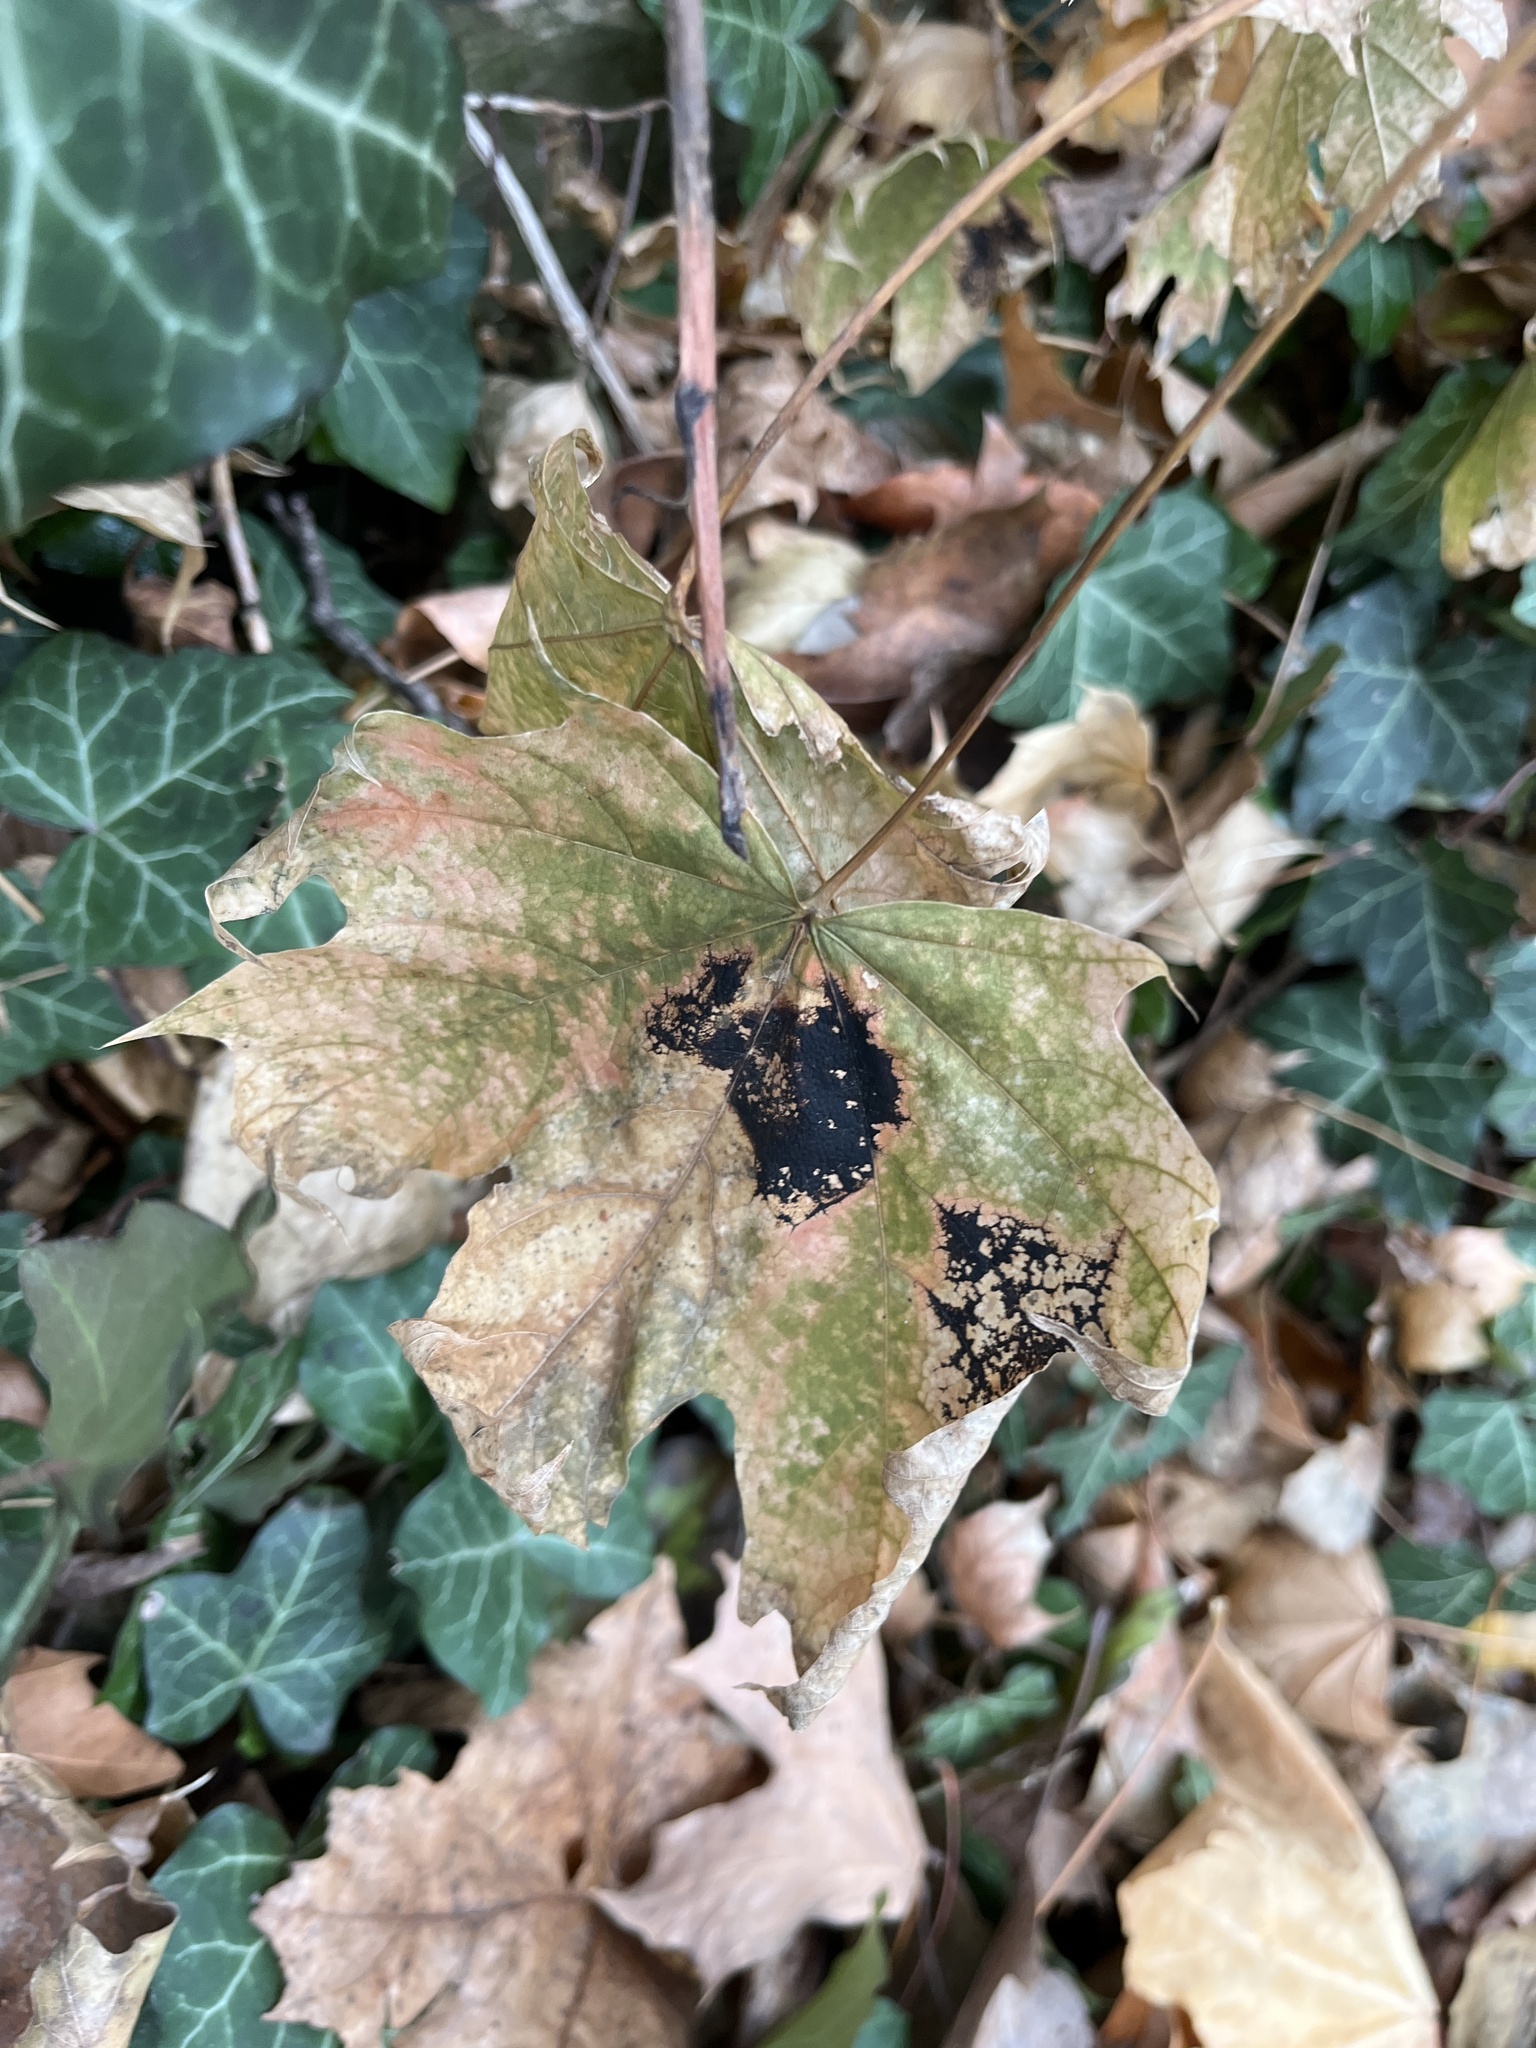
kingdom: Fungi
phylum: Ascomycota
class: Leotiomycetes
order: Rhytismatales
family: Rhytismataceae
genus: Rhytisma
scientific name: Rhytisma acerinum
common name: European tar spot
